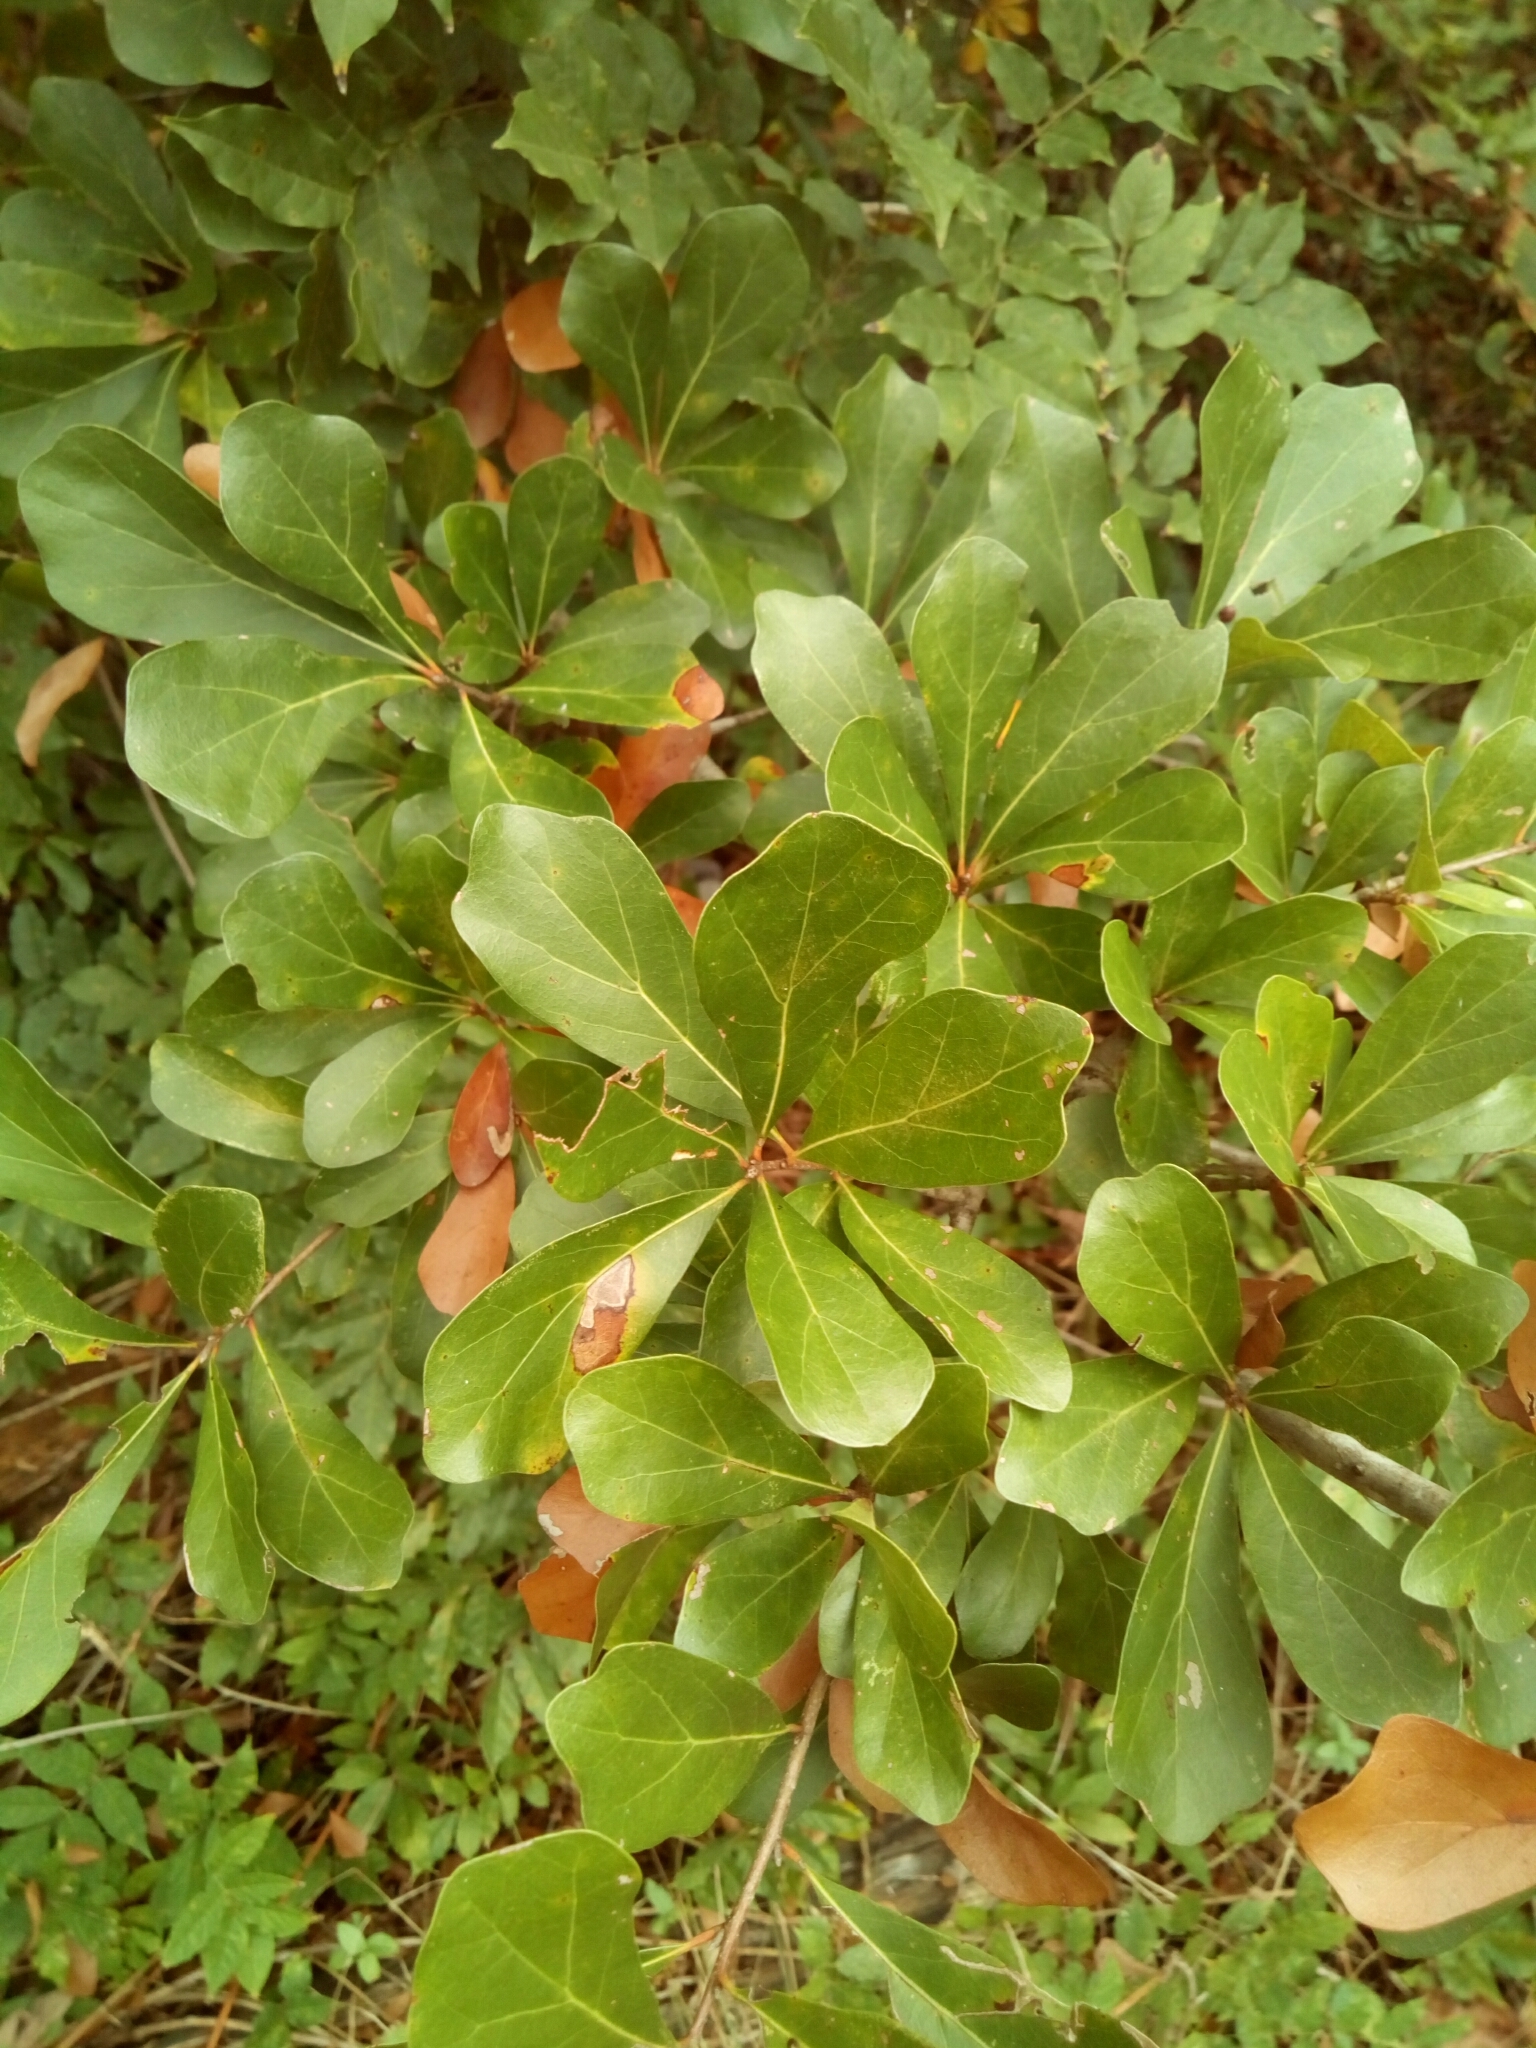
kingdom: Plantae
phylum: Tracheophyta
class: Magnoliopsida
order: Fagales
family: Fagaceae
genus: Quercus
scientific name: Quercus nigra
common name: Water oak
